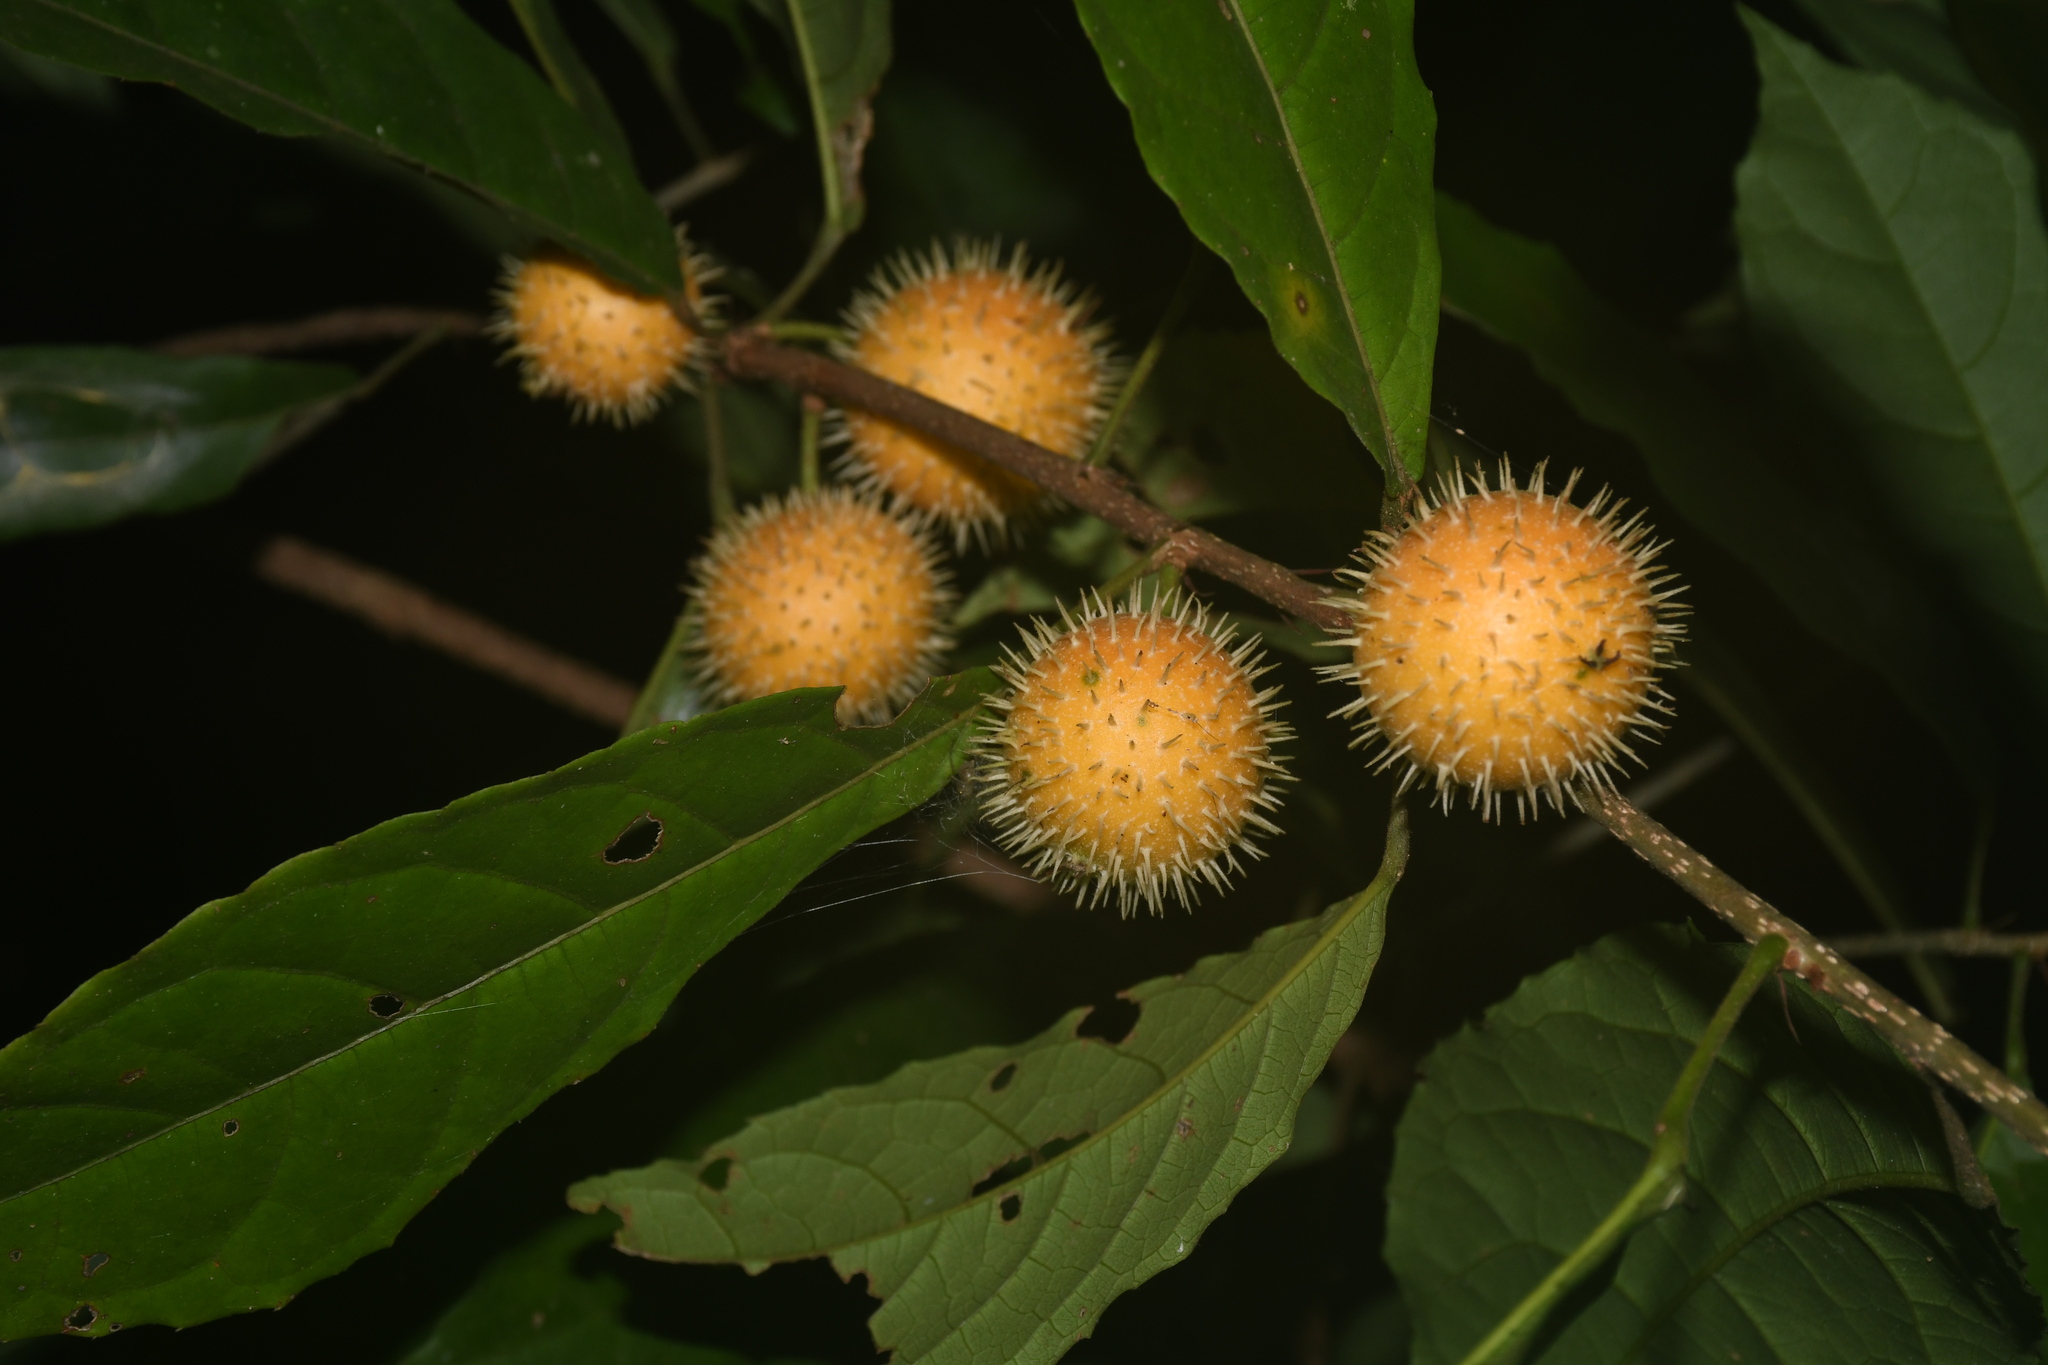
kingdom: Plantae
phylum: Tracheophyta
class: Magnoliopsida
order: Malpighiales
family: Achariaceae
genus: Mayna
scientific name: Mayna odorata
